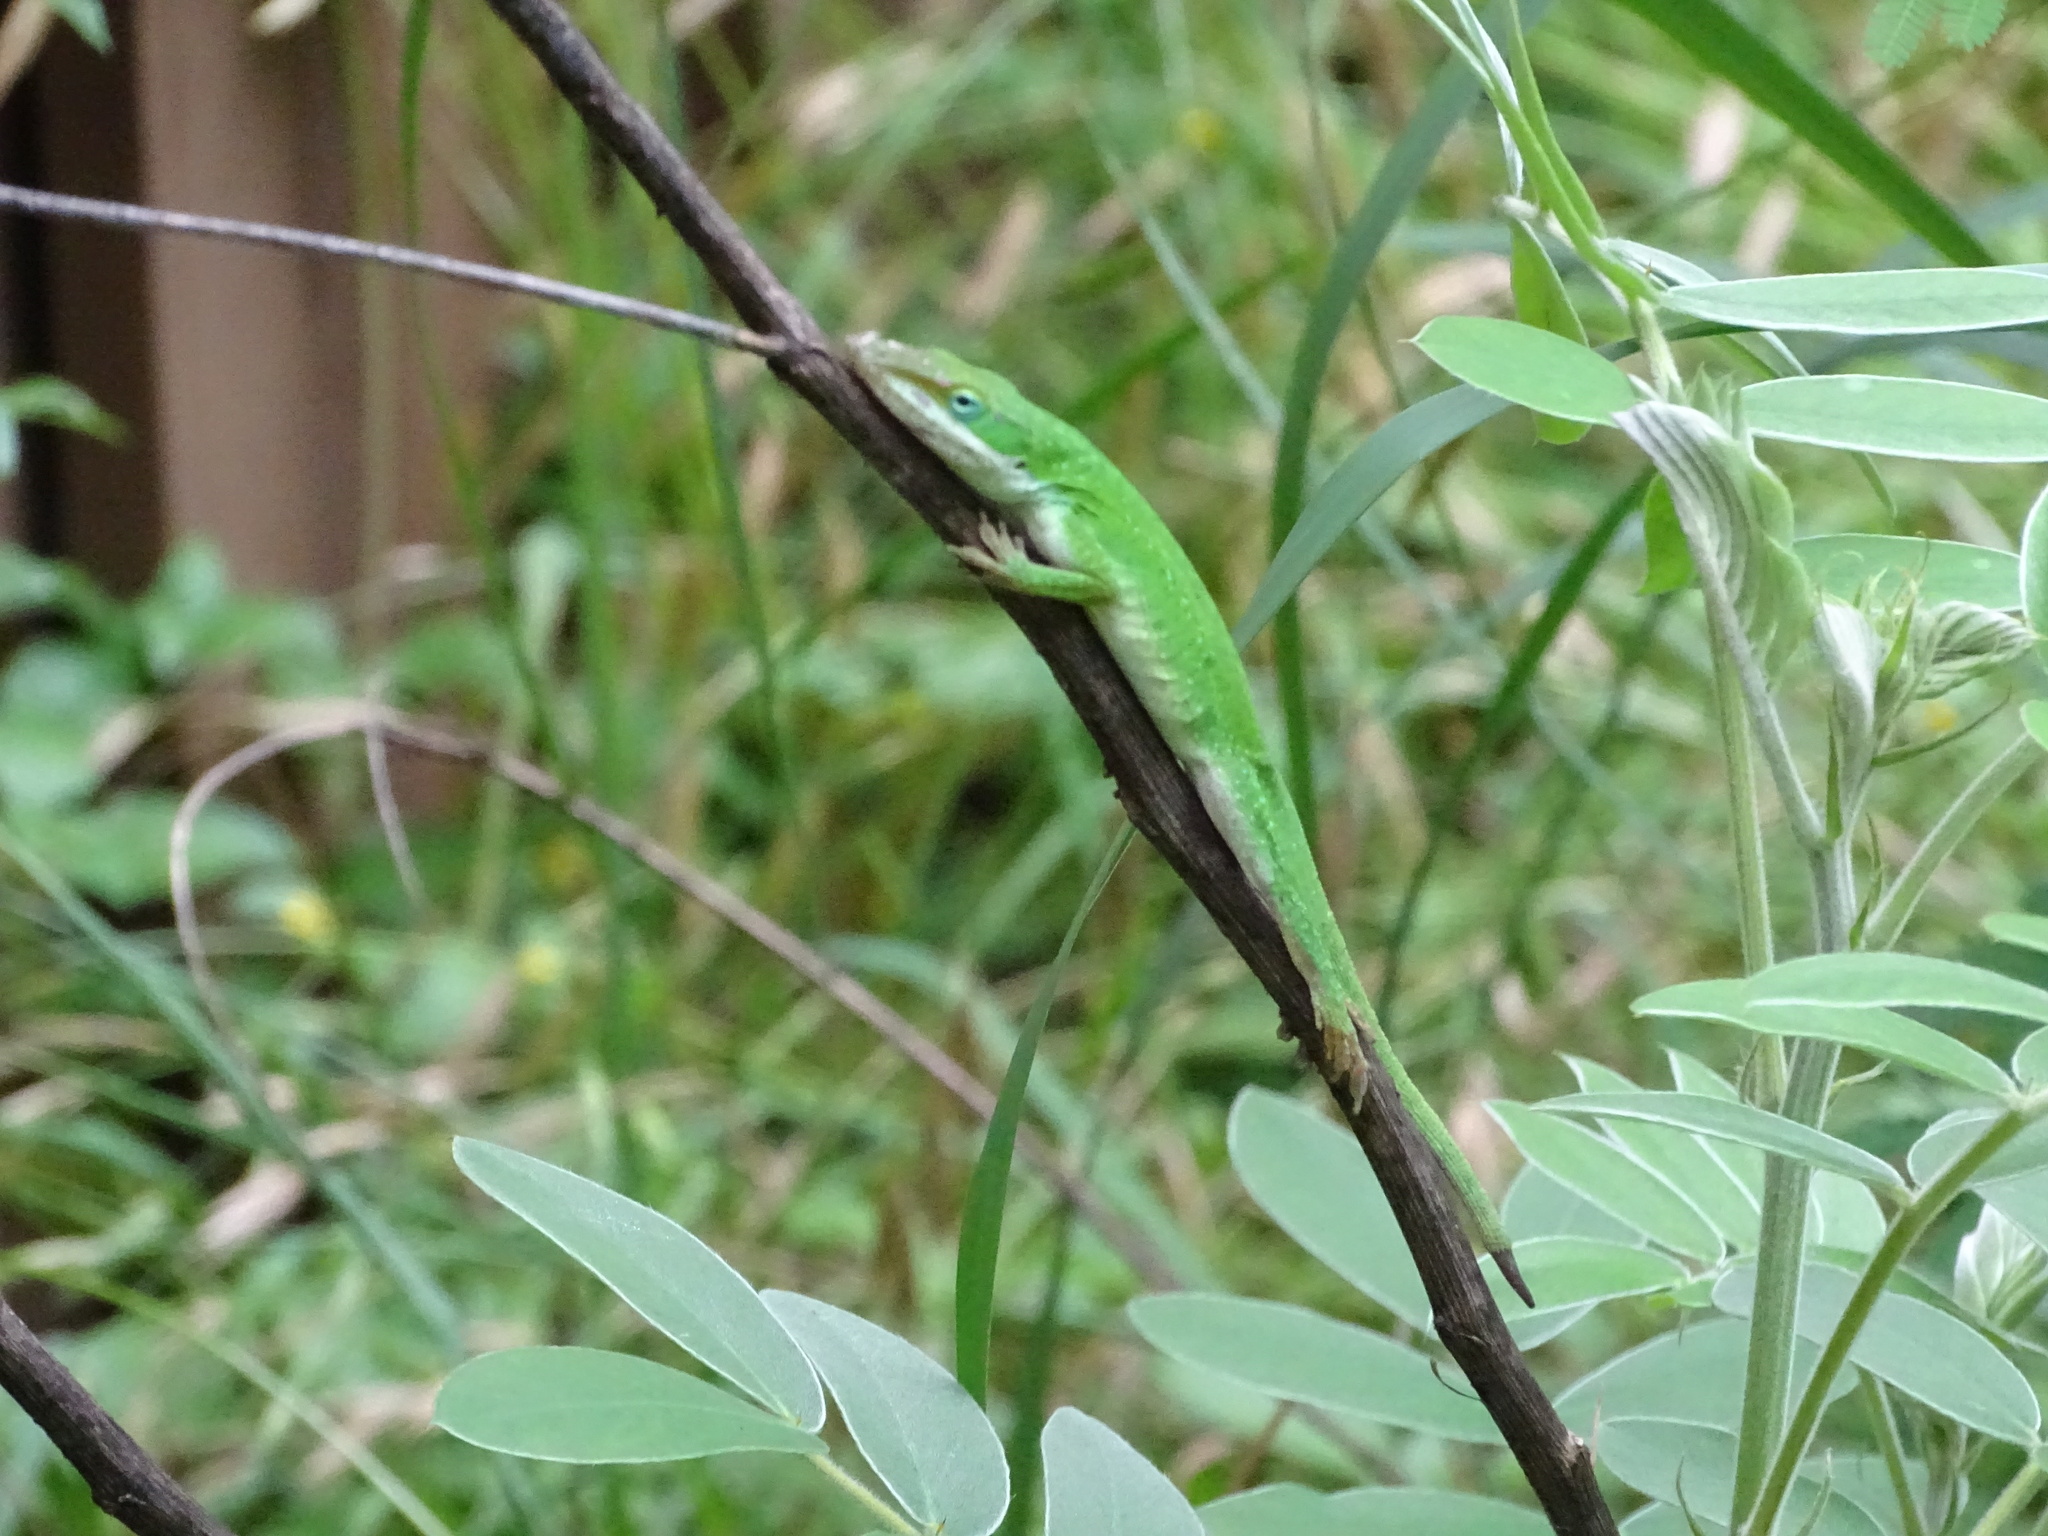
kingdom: Animalia
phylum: Chordata
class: Squamata
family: Dactyloidae
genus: Anolis
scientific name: Anolis carolinensis
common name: Green anole
